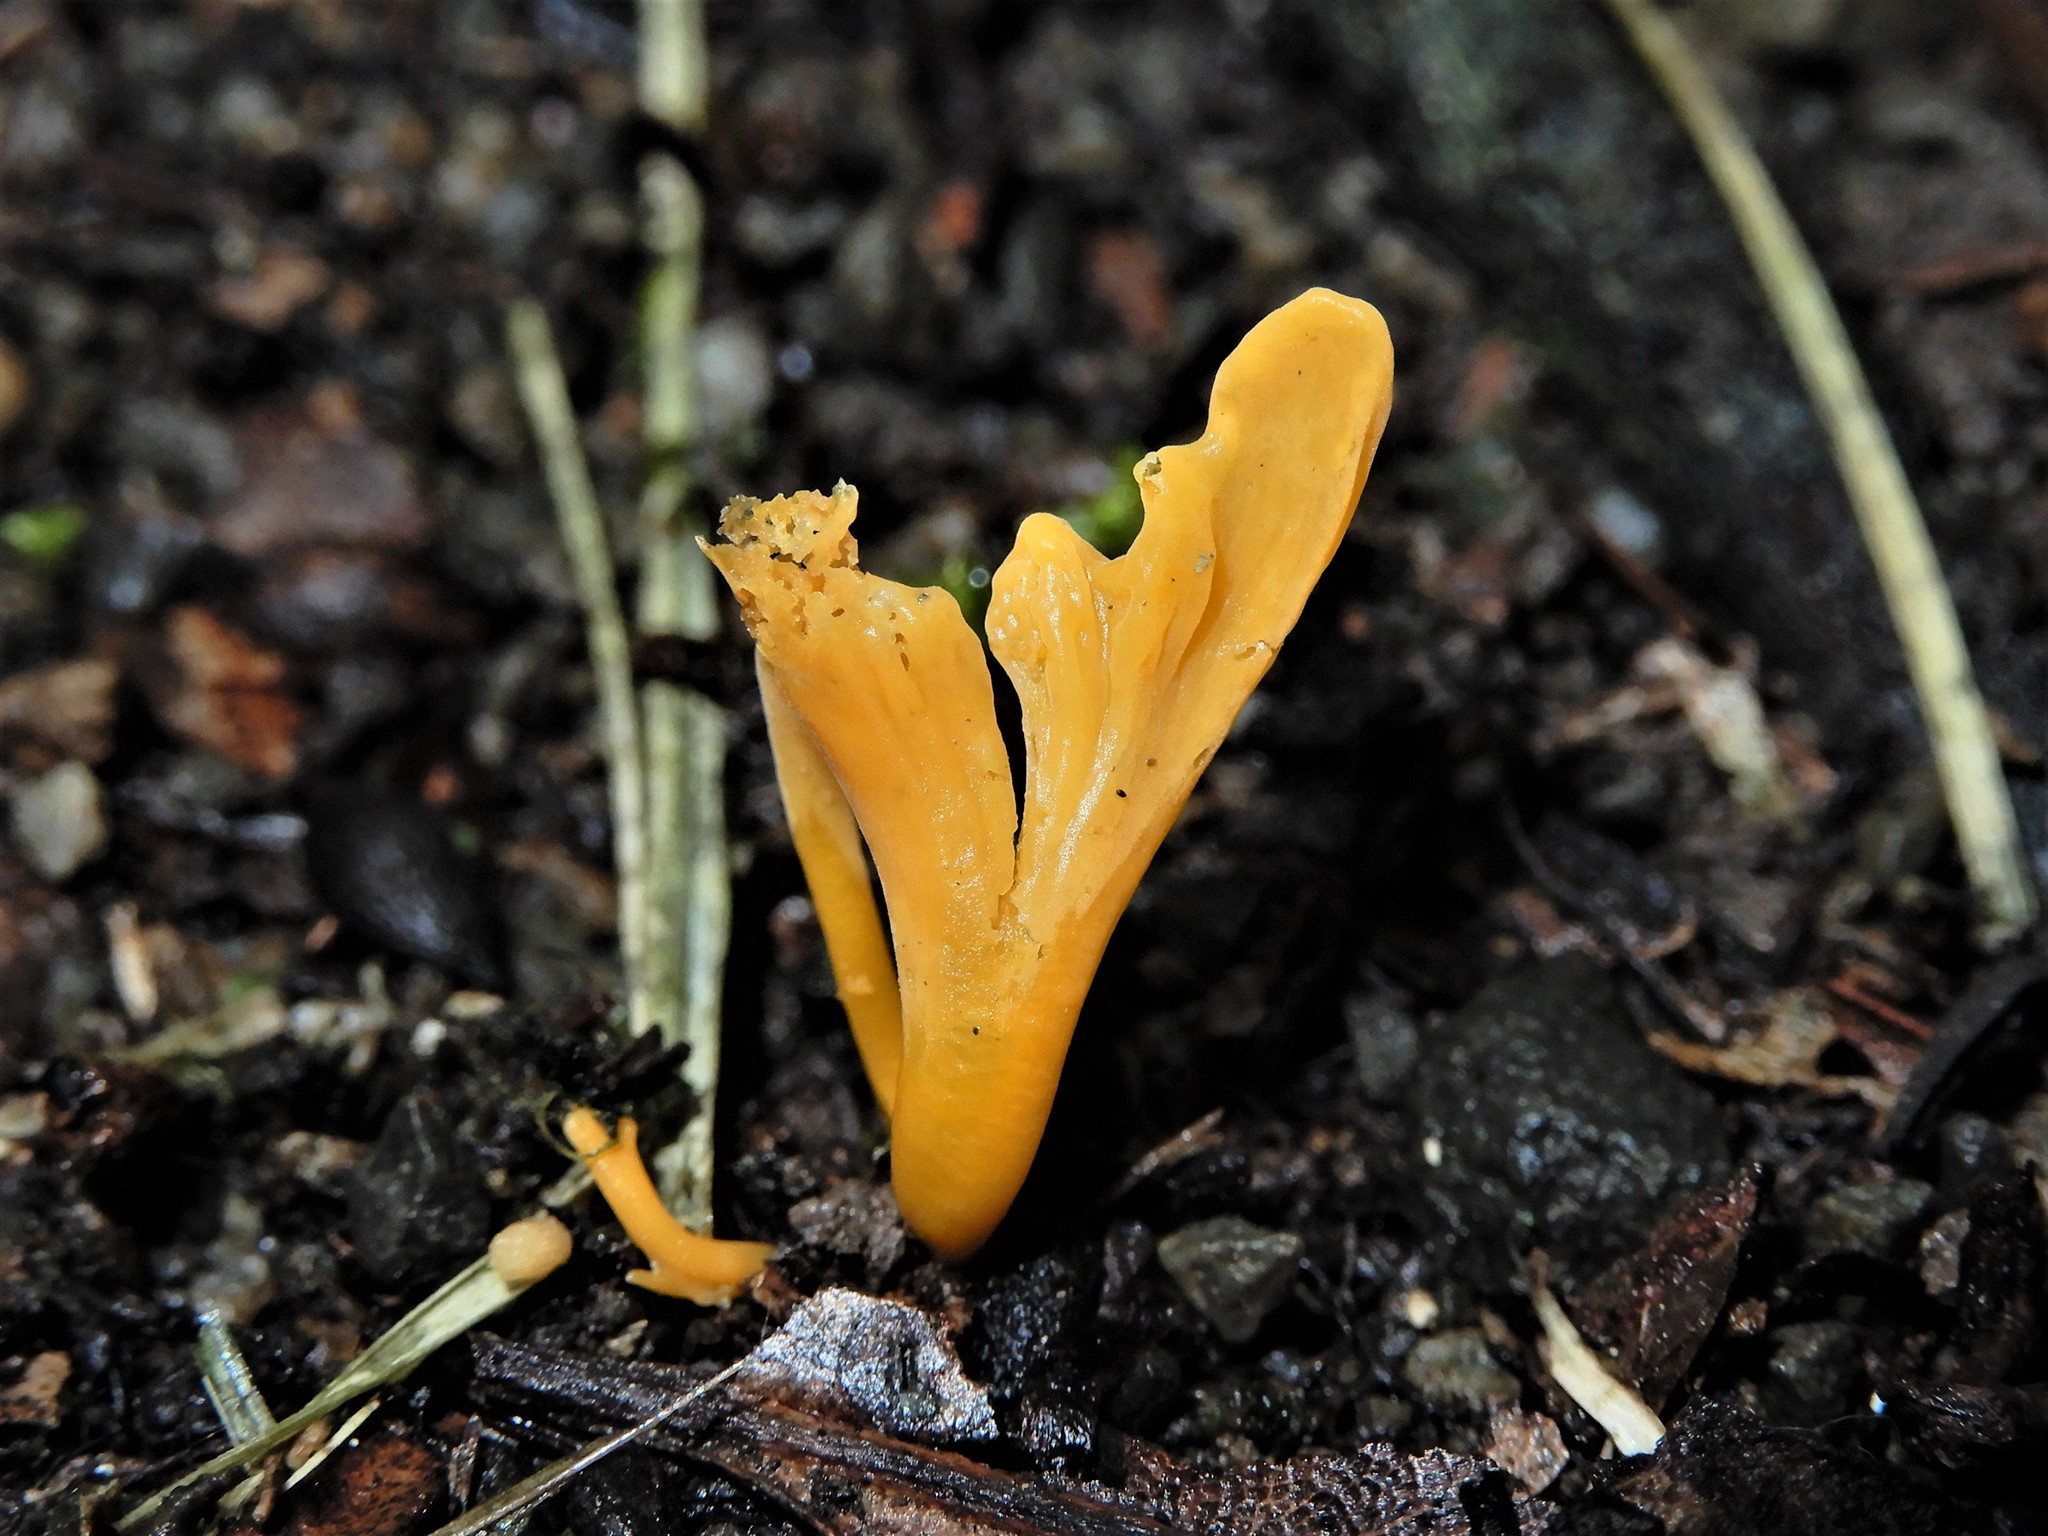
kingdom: Fungi
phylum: Basidiomycota
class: Agaricomycetes
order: Agaricales
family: Clavariaceae
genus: Clavulinopsis
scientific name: Clavulinopsis
